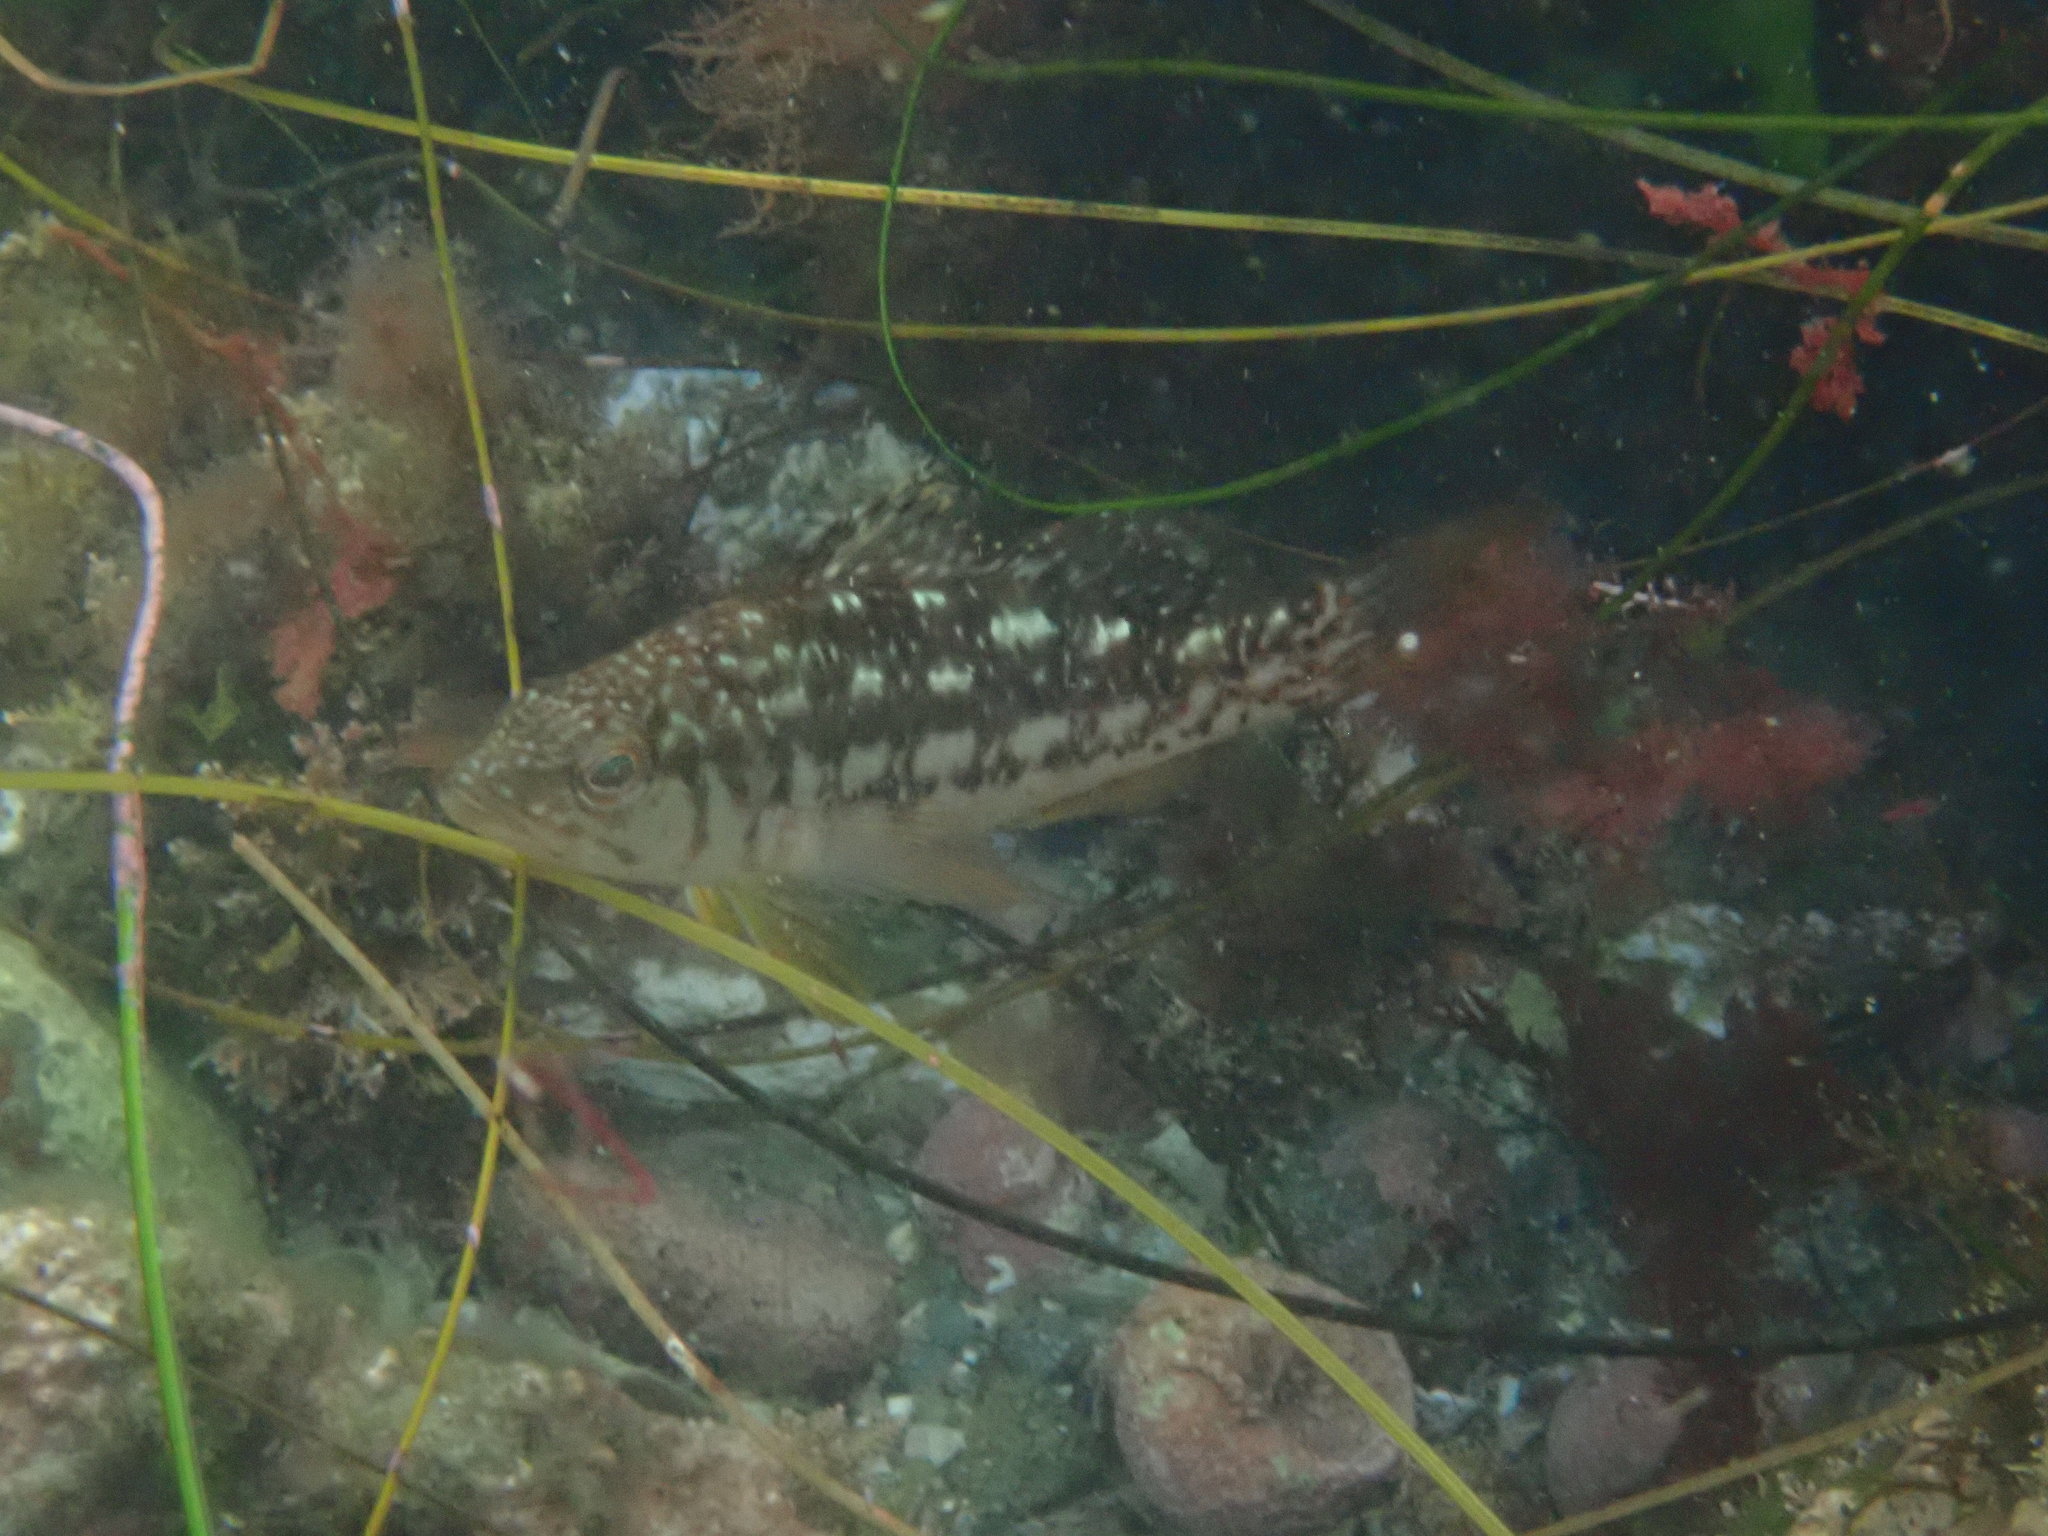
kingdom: Animalia
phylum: Chordata
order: Perciformes
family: Serranidae
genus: Paralabrax
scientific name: Paralabrax clathratus
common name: Kelp bass
